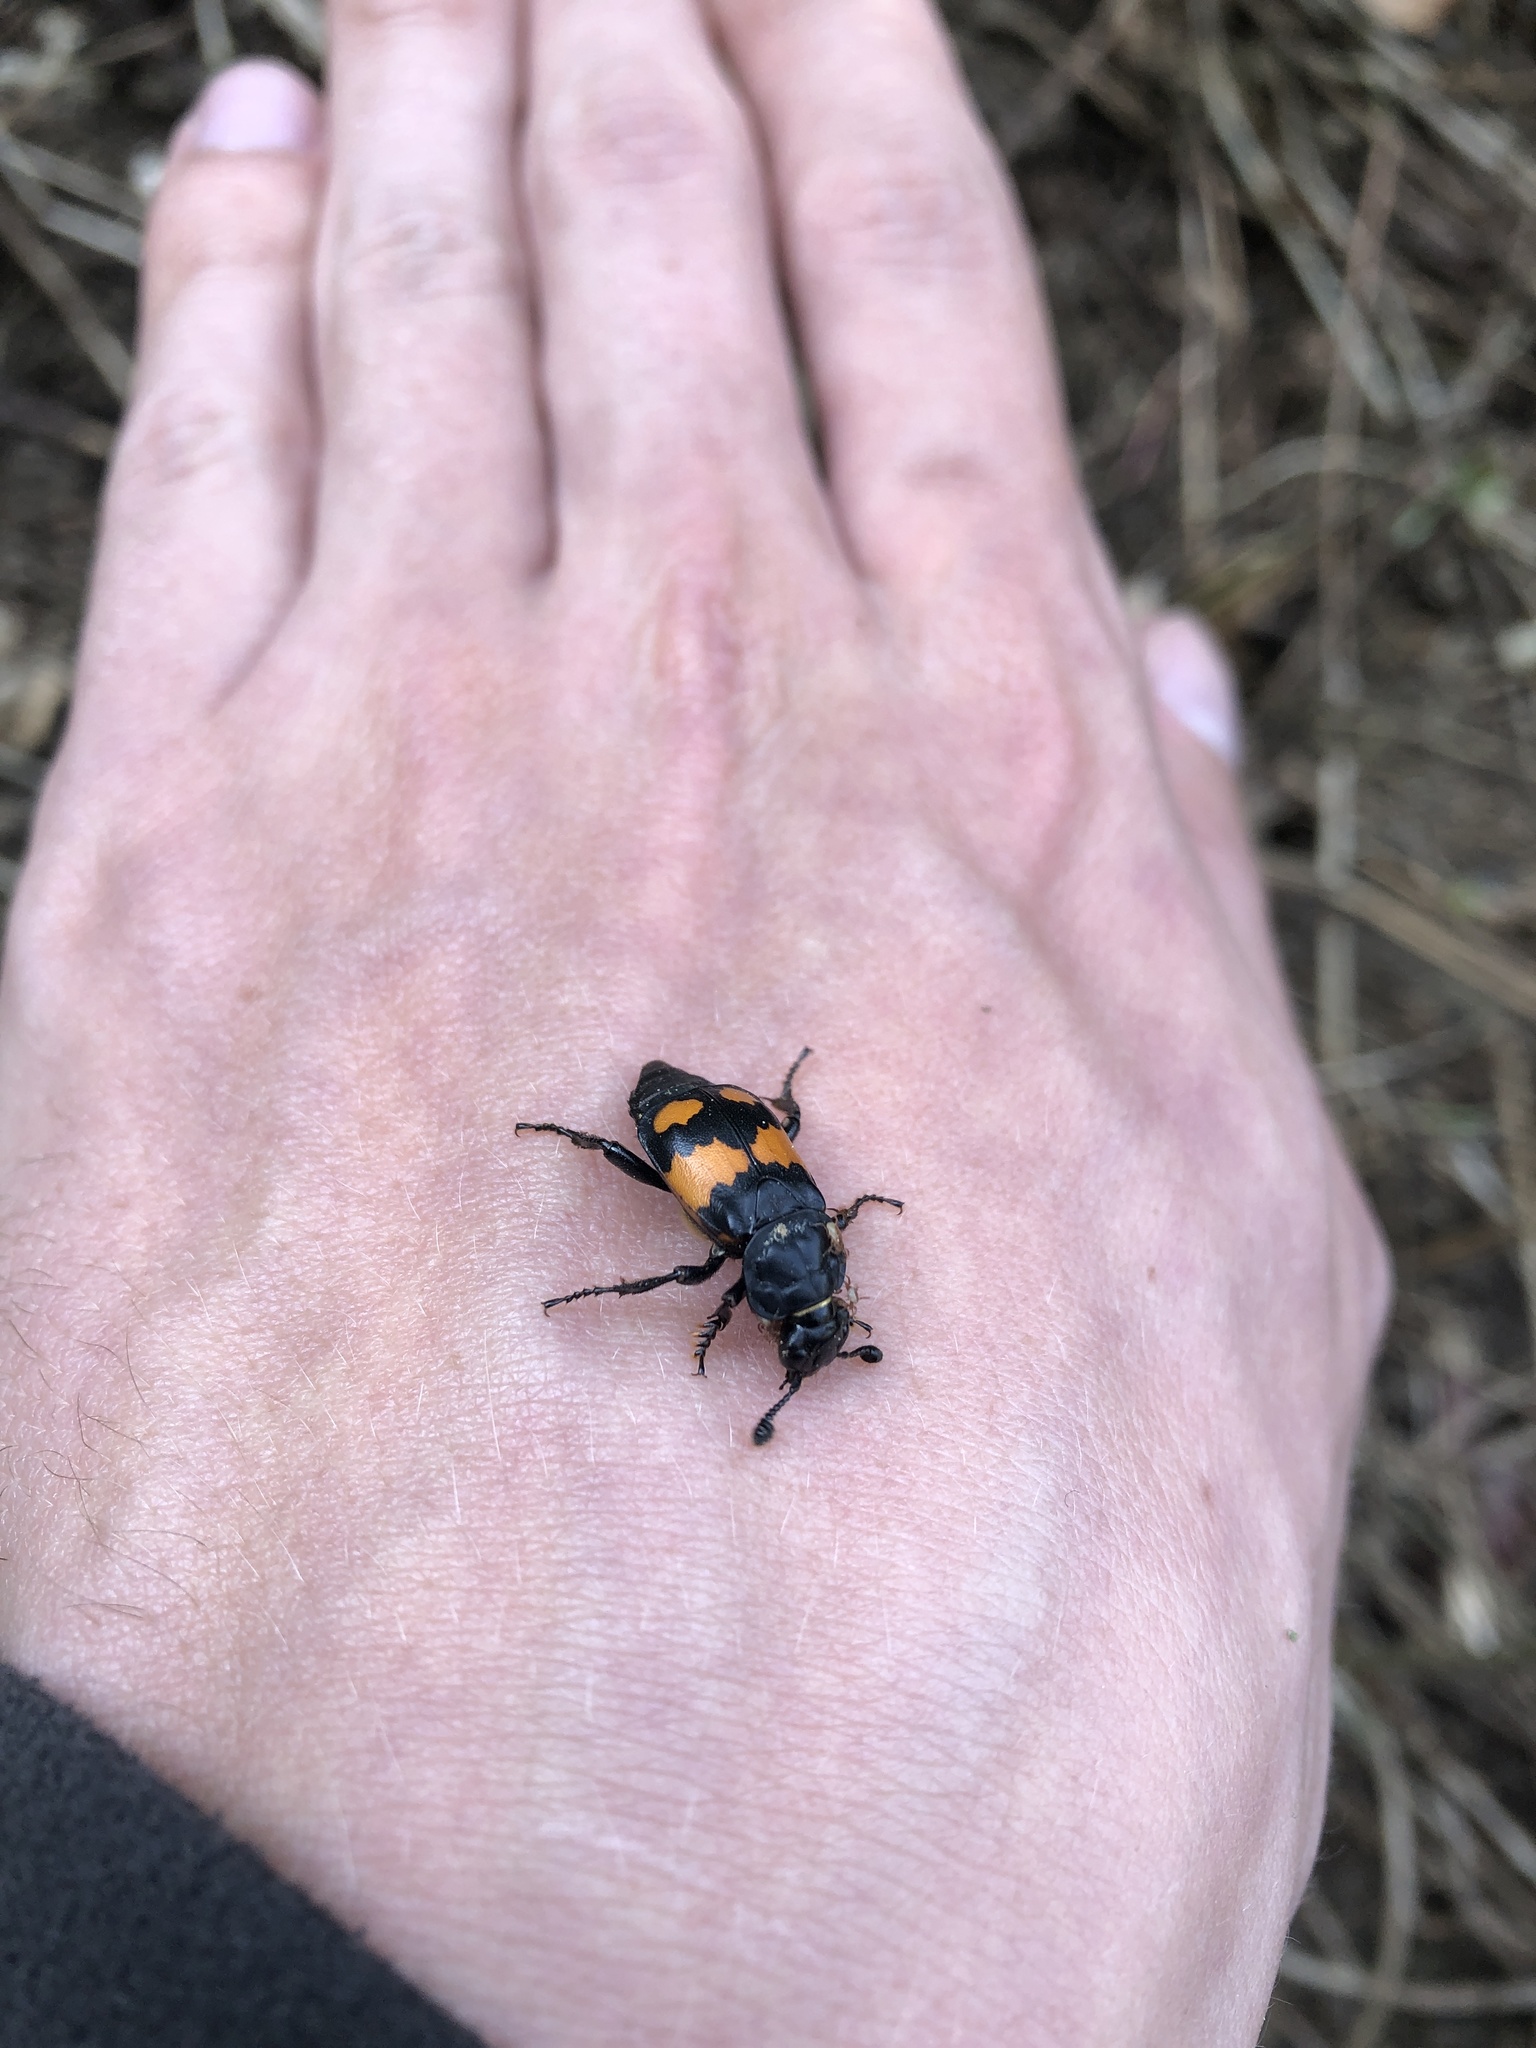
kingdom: Animalia
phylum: Arthropoda
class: Insecta
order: Coleoptera
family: Staphylinidae
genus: Nicrophorus
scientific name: Nicrophorus vespilloides
